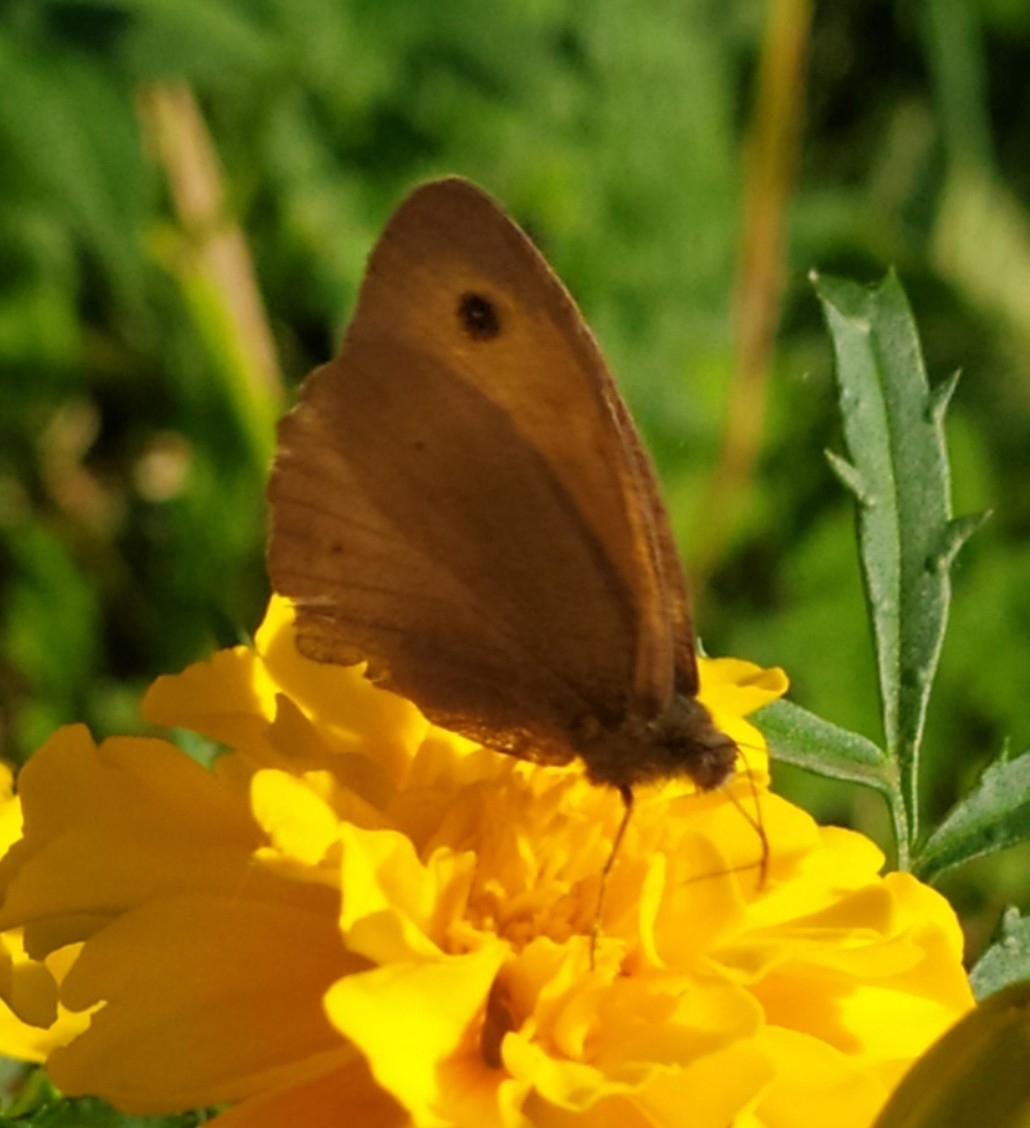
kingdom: Animalia
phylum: Arthropoda
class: Insecta
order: Lepidoptera
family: Nymphalidae
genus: Maniola
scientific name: Maniola jurtina
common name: Meadow brown
